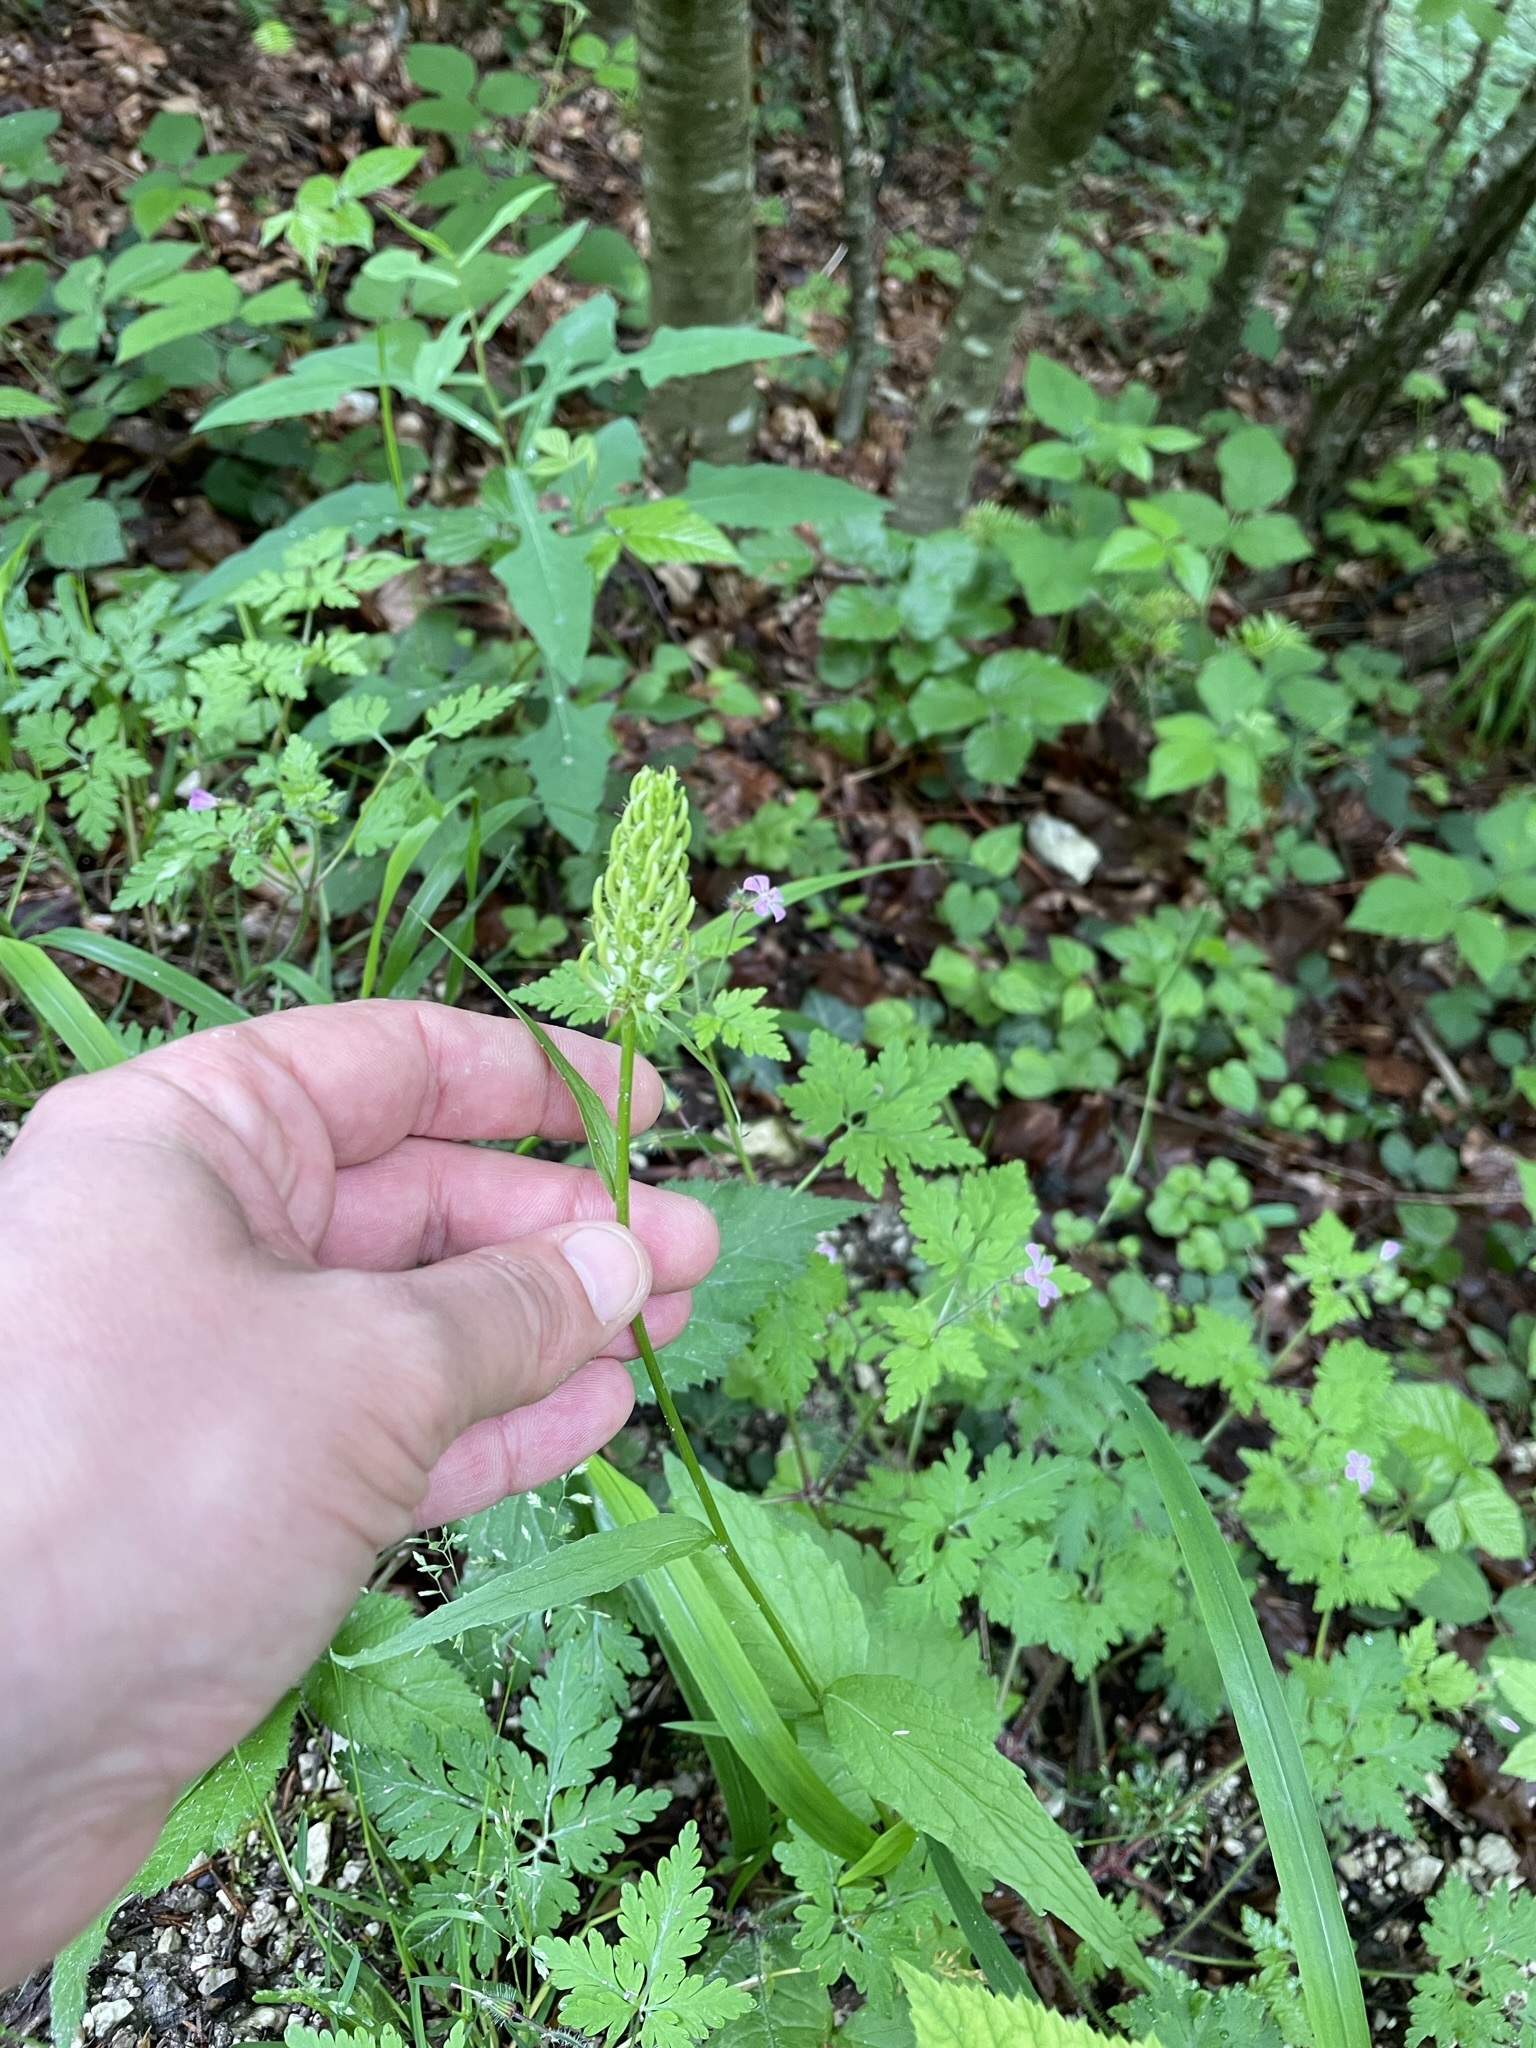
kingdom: Plantae
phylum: Tracheophyta
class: Magnoliopsida
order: Asterales
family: Campanulaceae
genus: Phyteuma
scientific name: Phyteuma spicatum
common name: Spiked rampion
